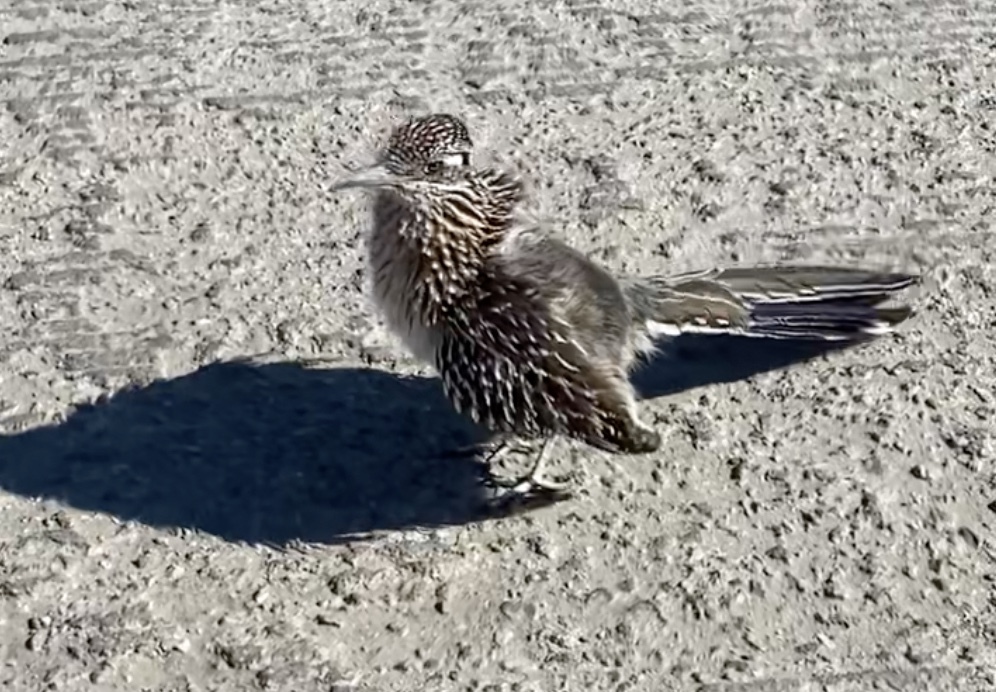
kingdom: Animalia
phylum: Chordata
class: Aves
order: Cuculiformes
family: Cuculidae
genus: Geococcyx
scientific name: Geococcyx californianus
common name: Greater roadrunner
